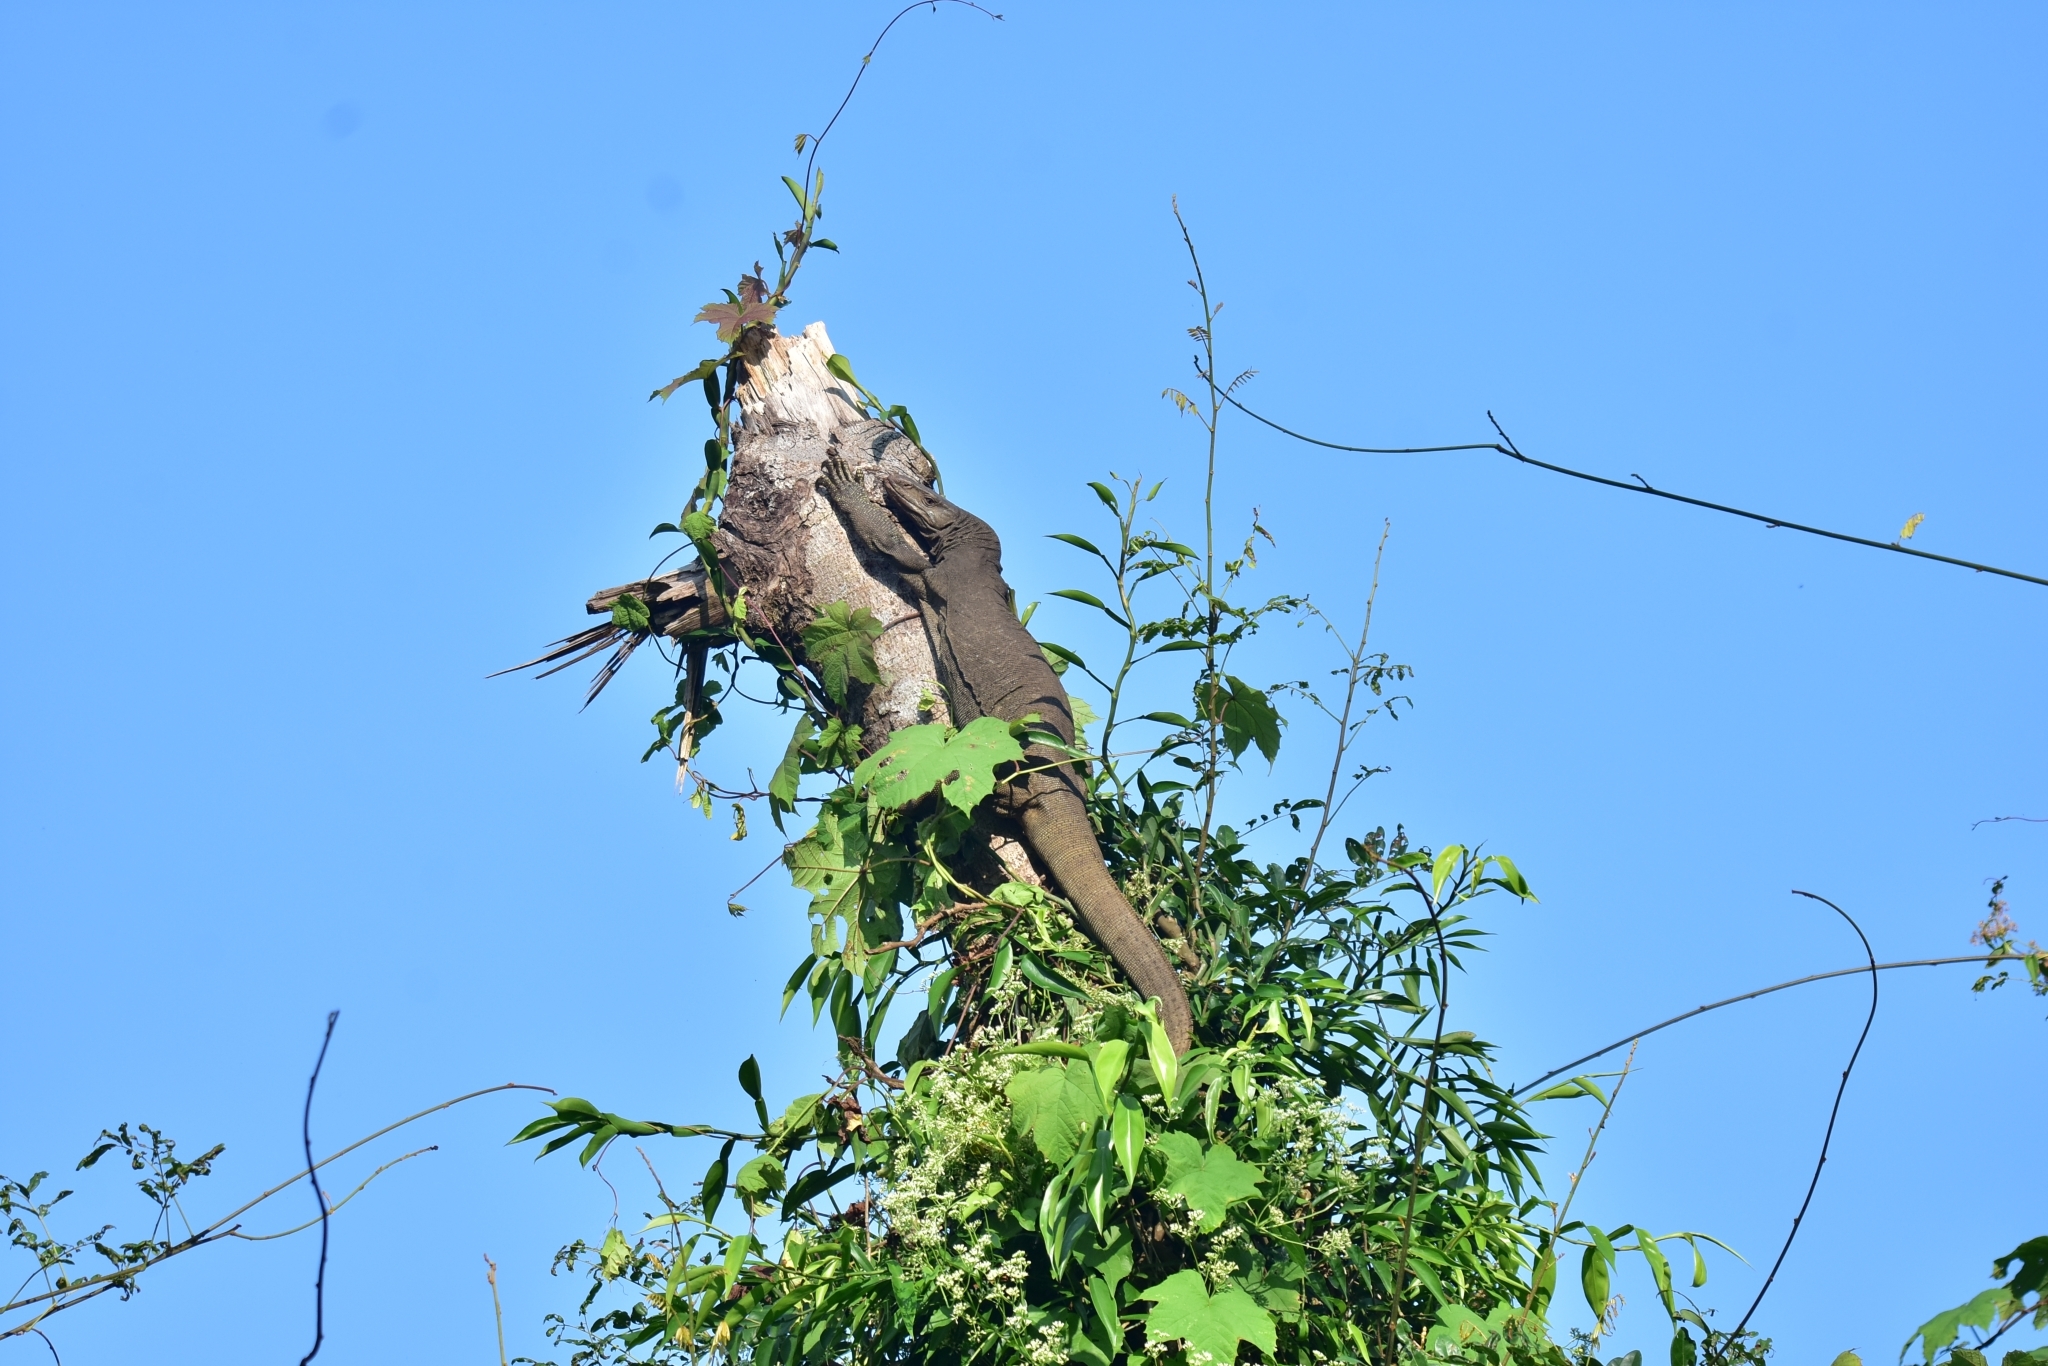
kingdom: Animalia
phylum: Chordata
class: Squamata
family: Varanidae
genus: Varanus
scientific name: Varanus bengalensis
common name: Bengal monitor
